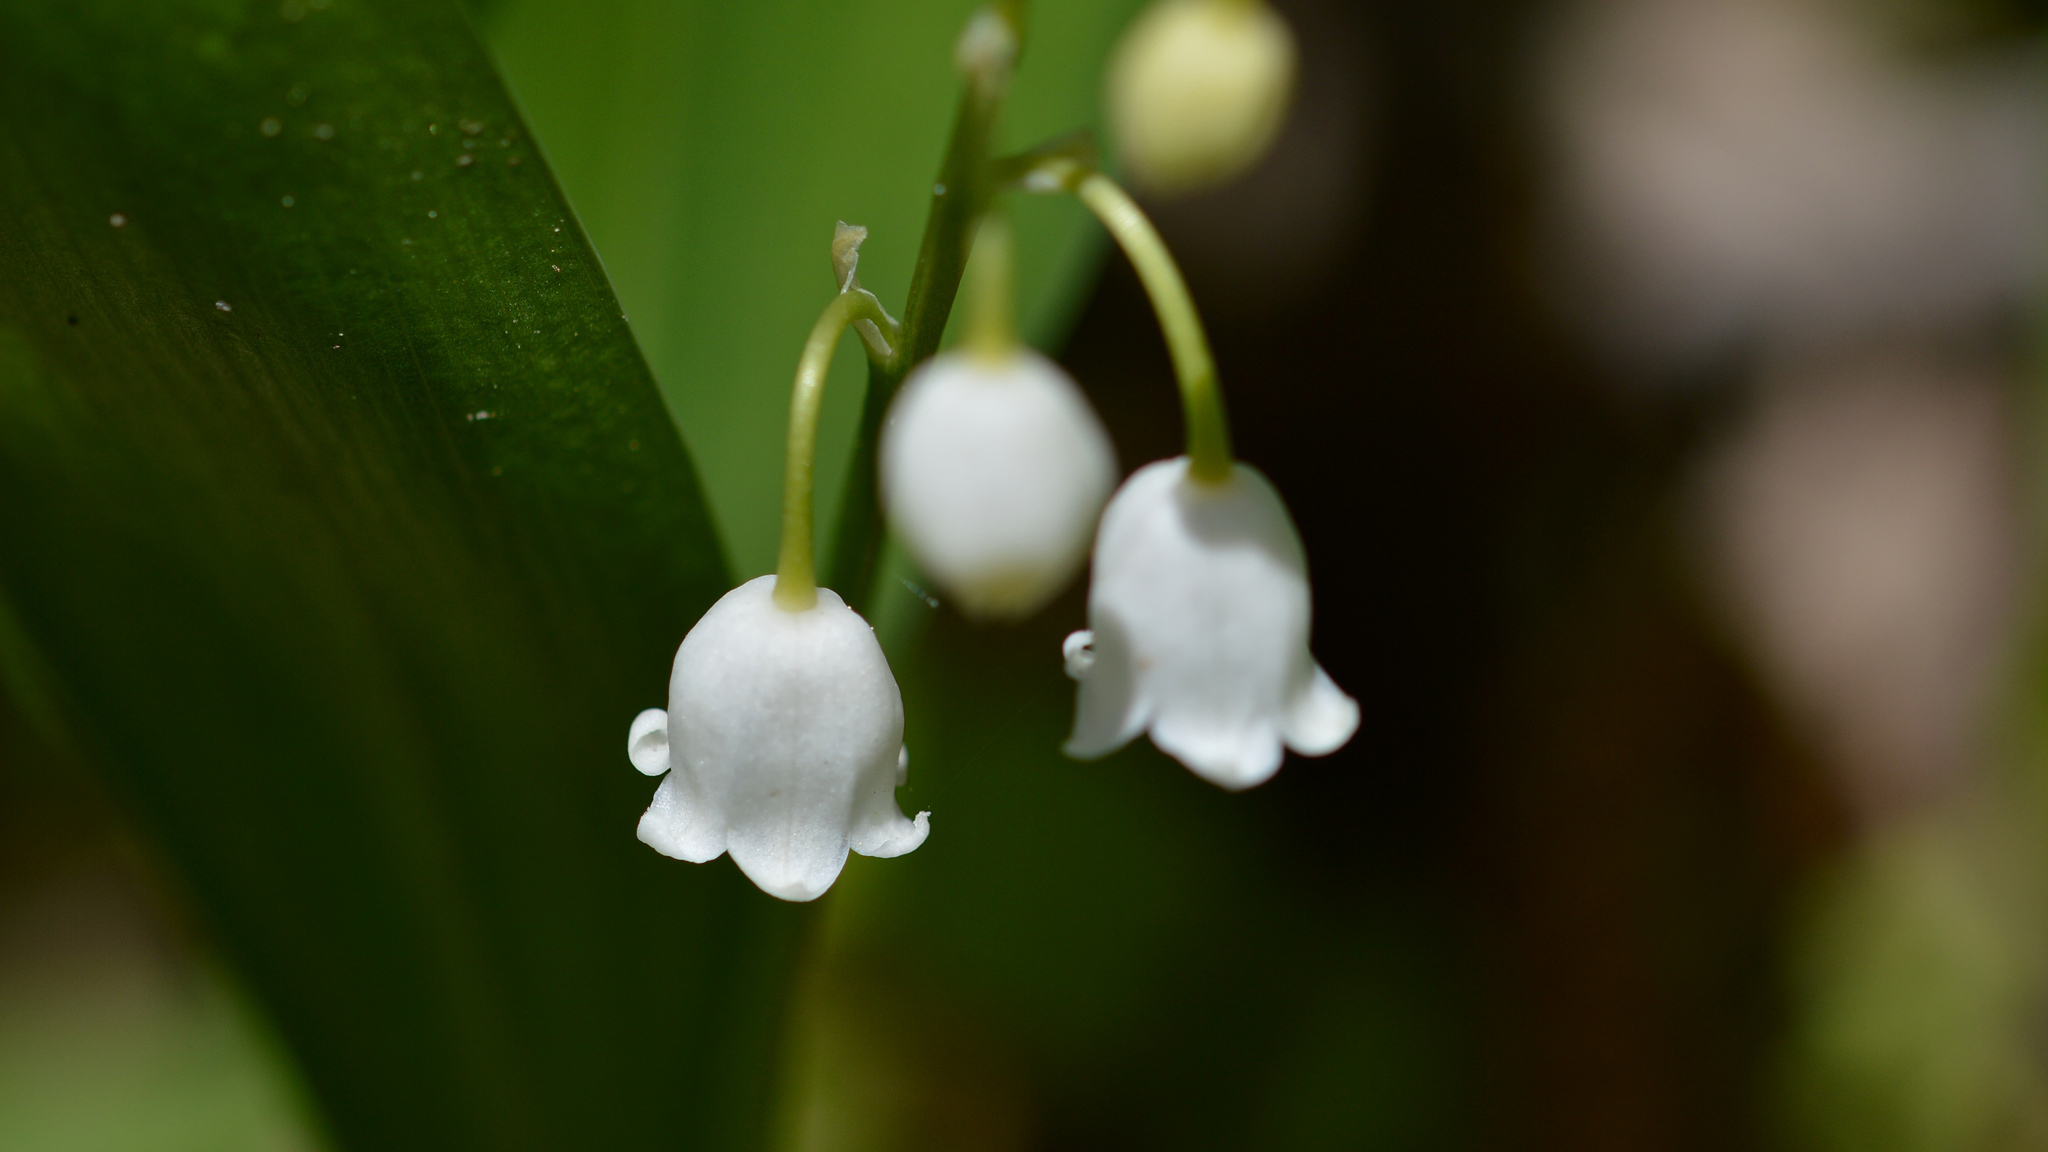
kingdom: Plantae
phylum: Tracheophyta
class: Liliopsida
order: Asparagales
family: Asparagaceae
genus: Convallaria
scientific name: Convallaria majalis
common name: Lily-of-the-valley
